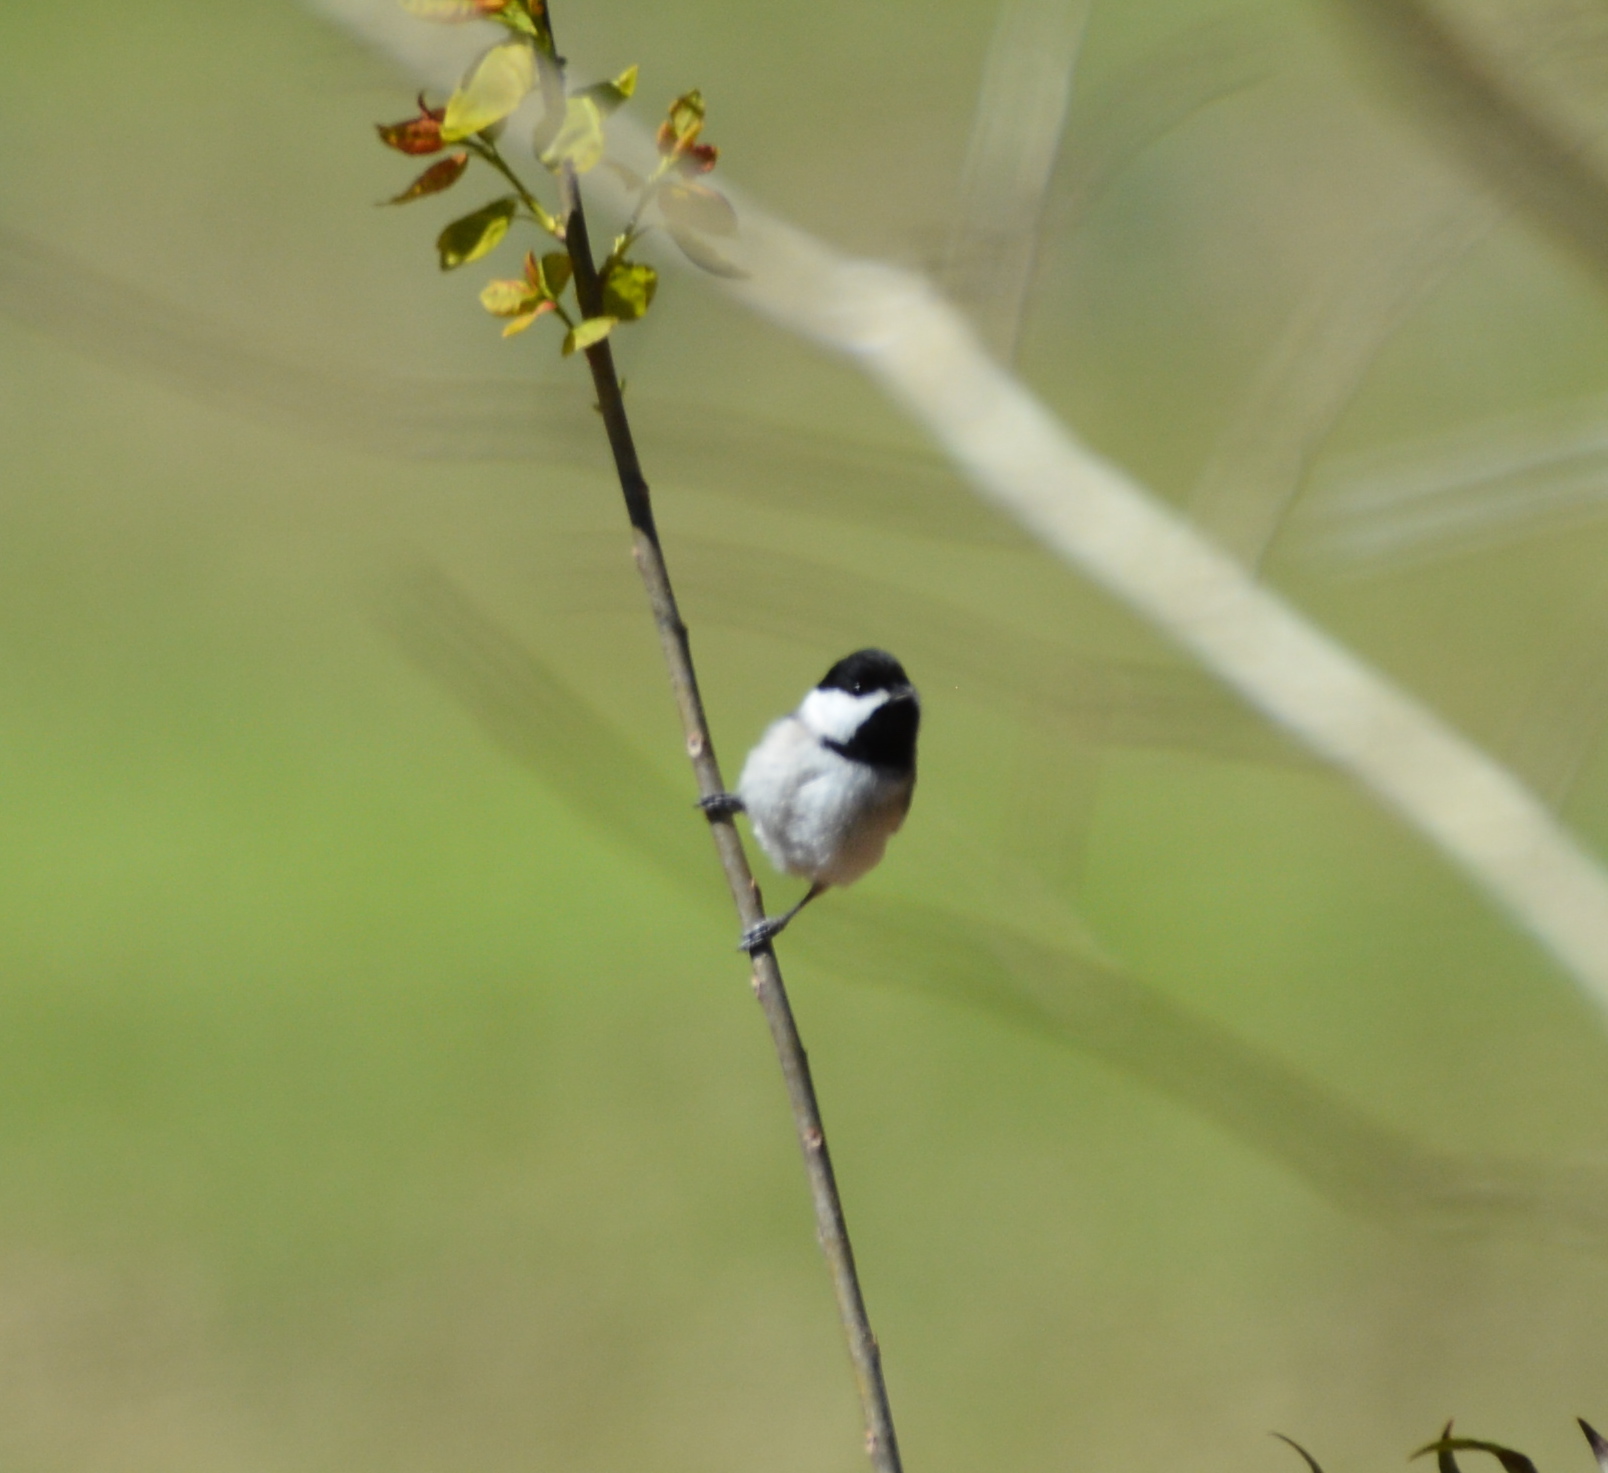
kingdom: Animalia
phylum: Chordata
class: Aves
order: Passeriformes
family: Paridae
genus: Poecile
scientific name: Poecile carolinensis
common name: Carolina chickadee
